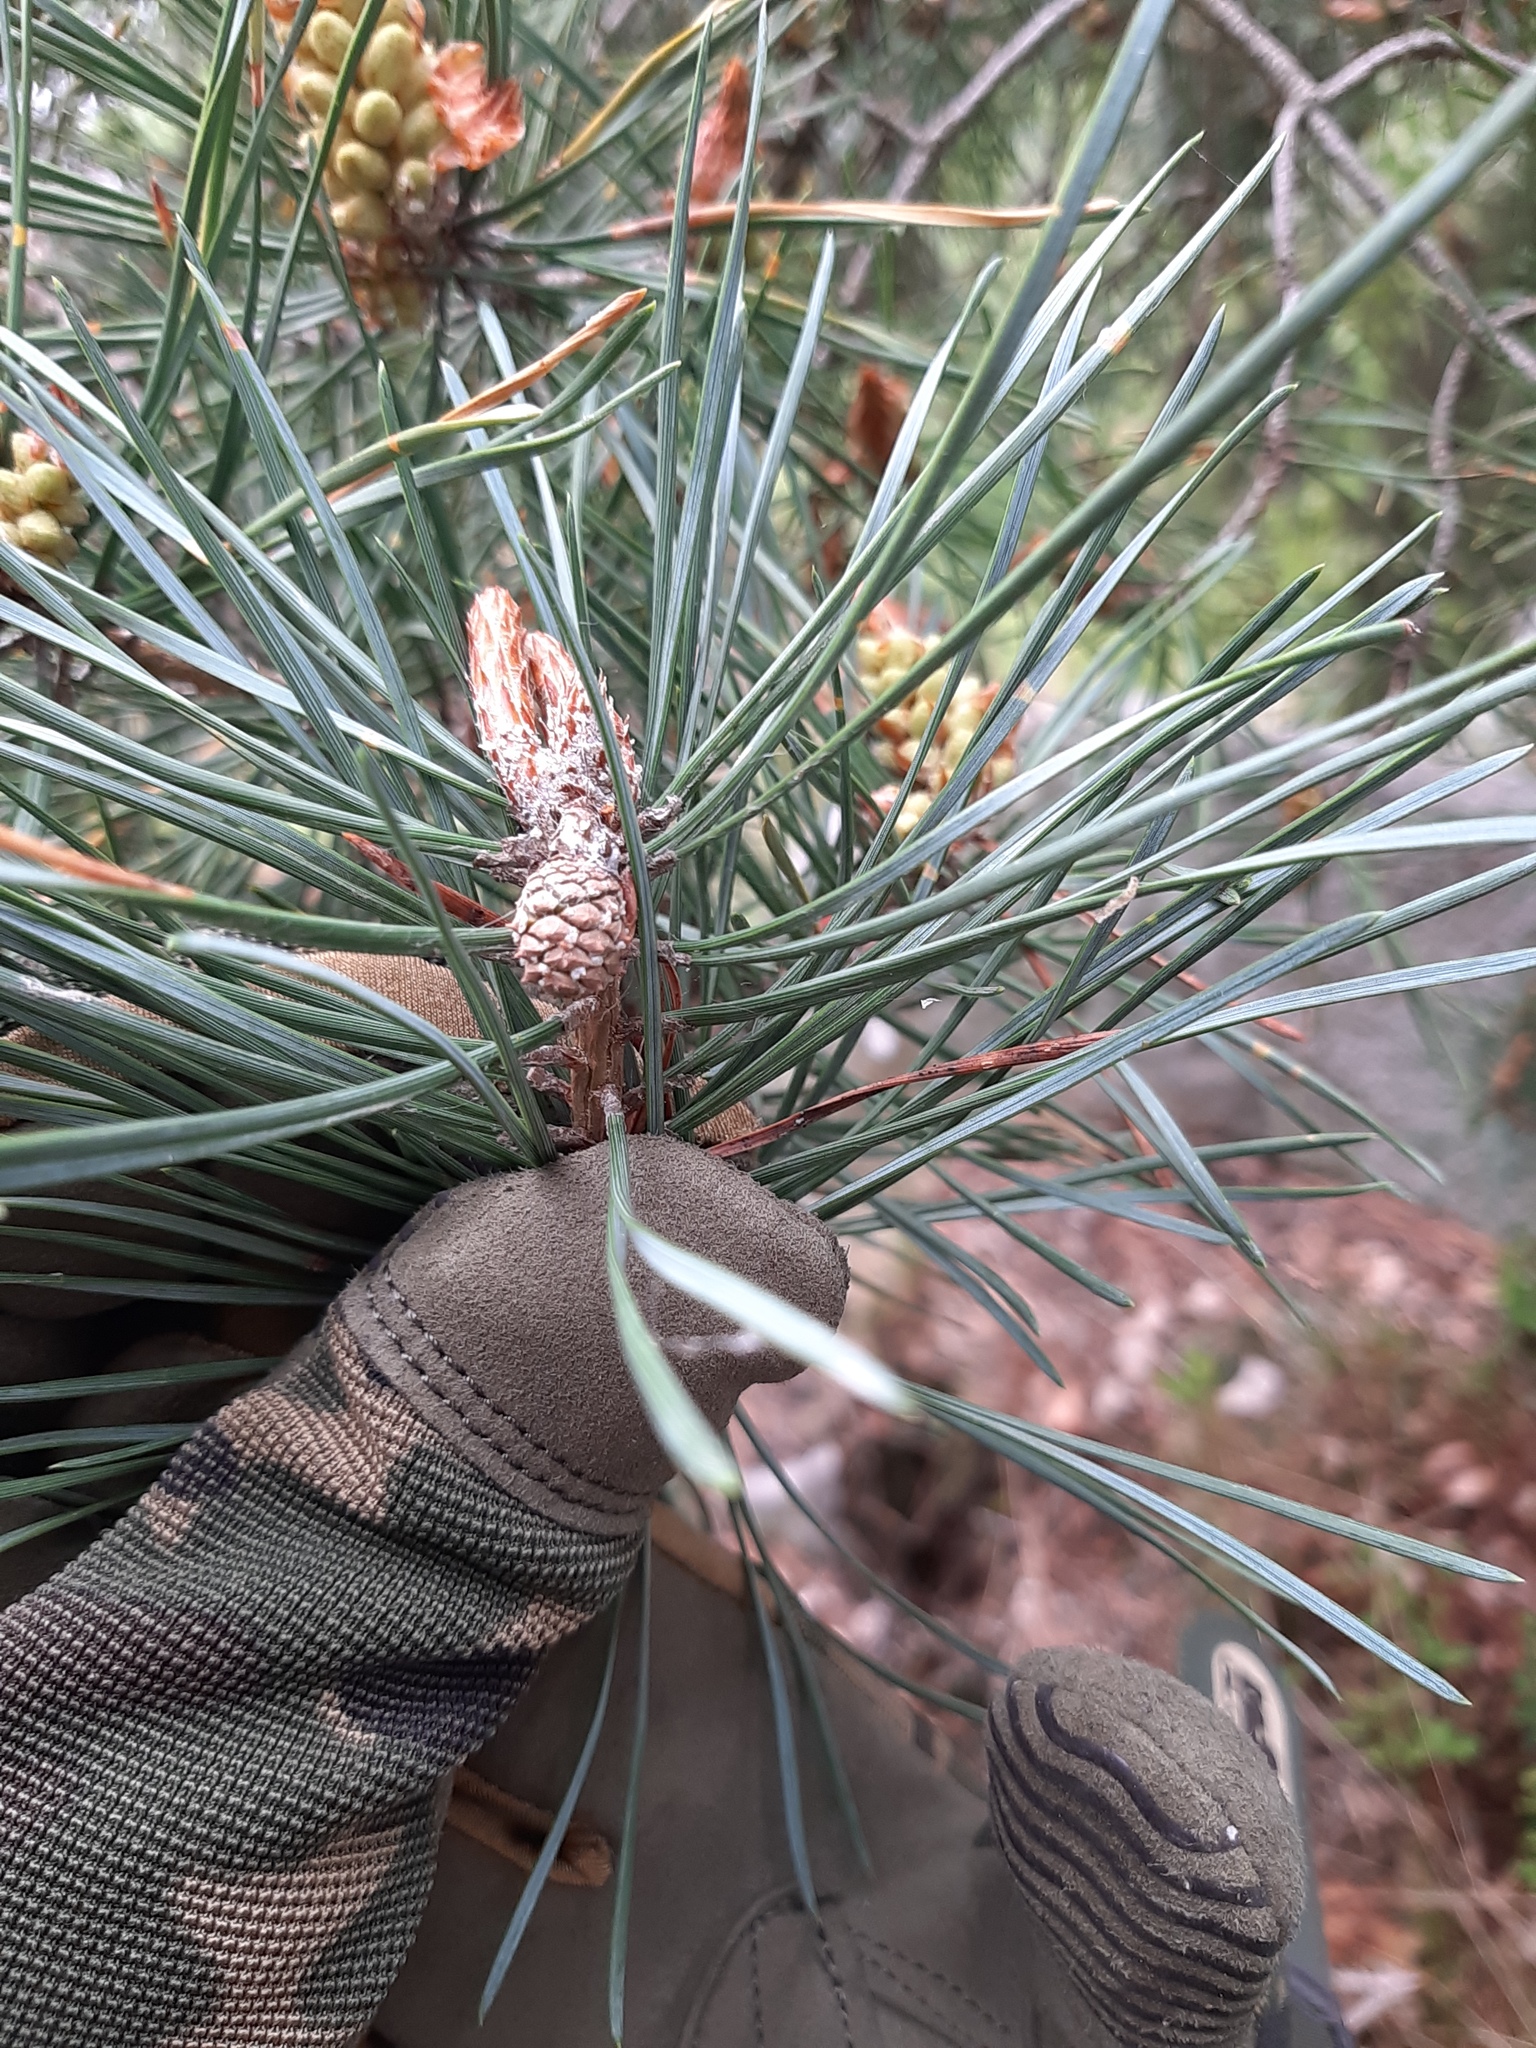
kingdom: Plantae
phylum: Tracheophyta
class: Pinopsida
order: Pinales
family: Pinaceae
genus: Pinus
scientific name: Pinus sylvestris
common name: Scots pine
